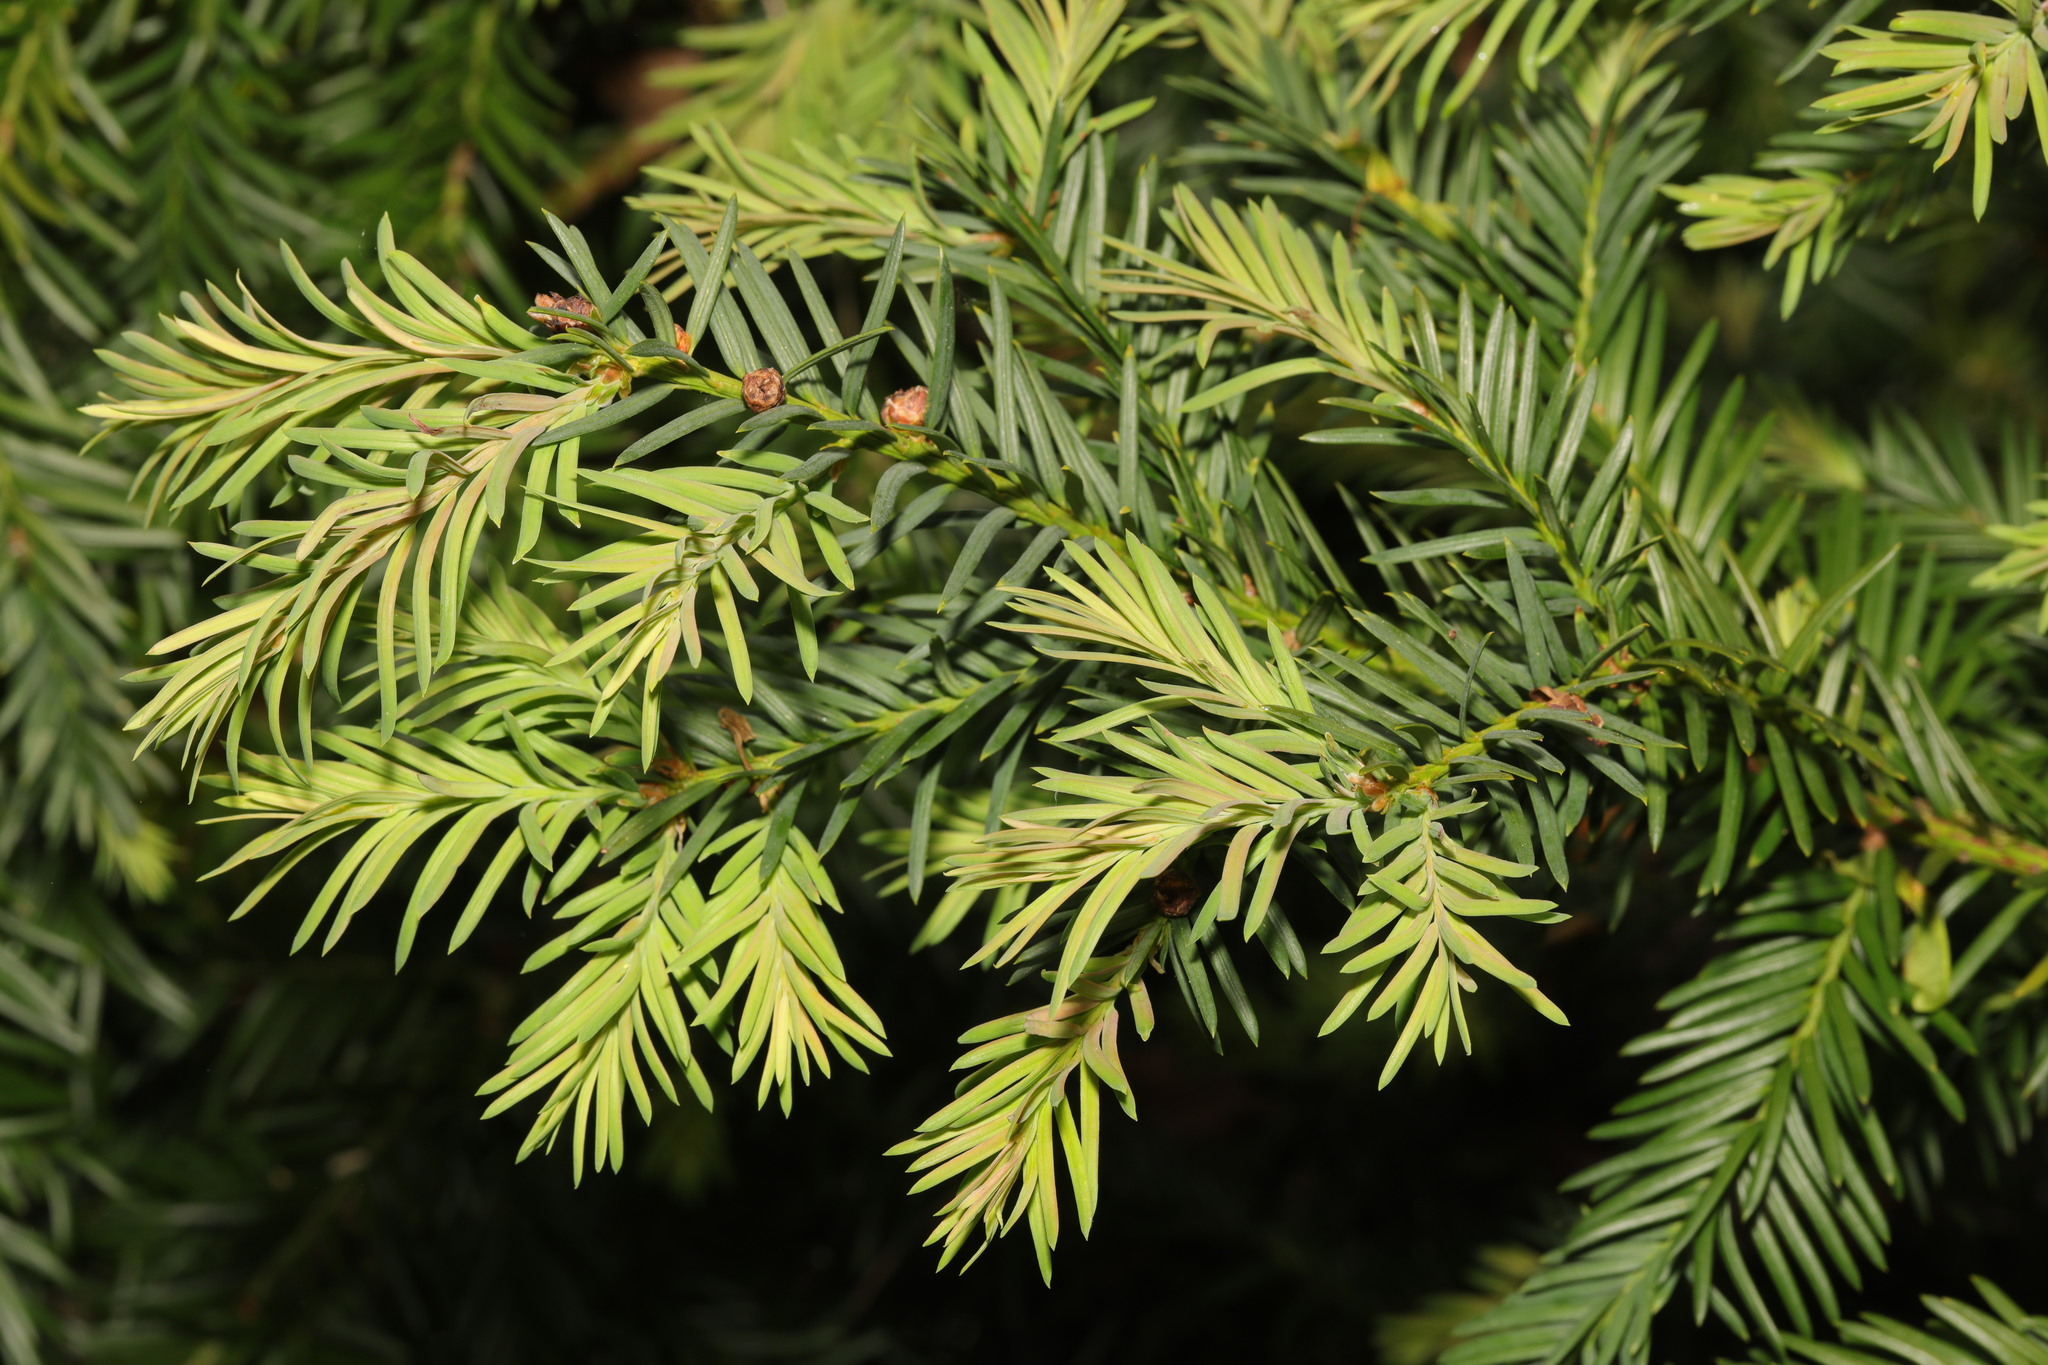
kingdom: Plantae
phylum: Tracheophyta
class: Pinopsida
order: Pinales
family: Taxaceae
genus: Taxus
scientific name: Taxus baccata
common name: Yew
